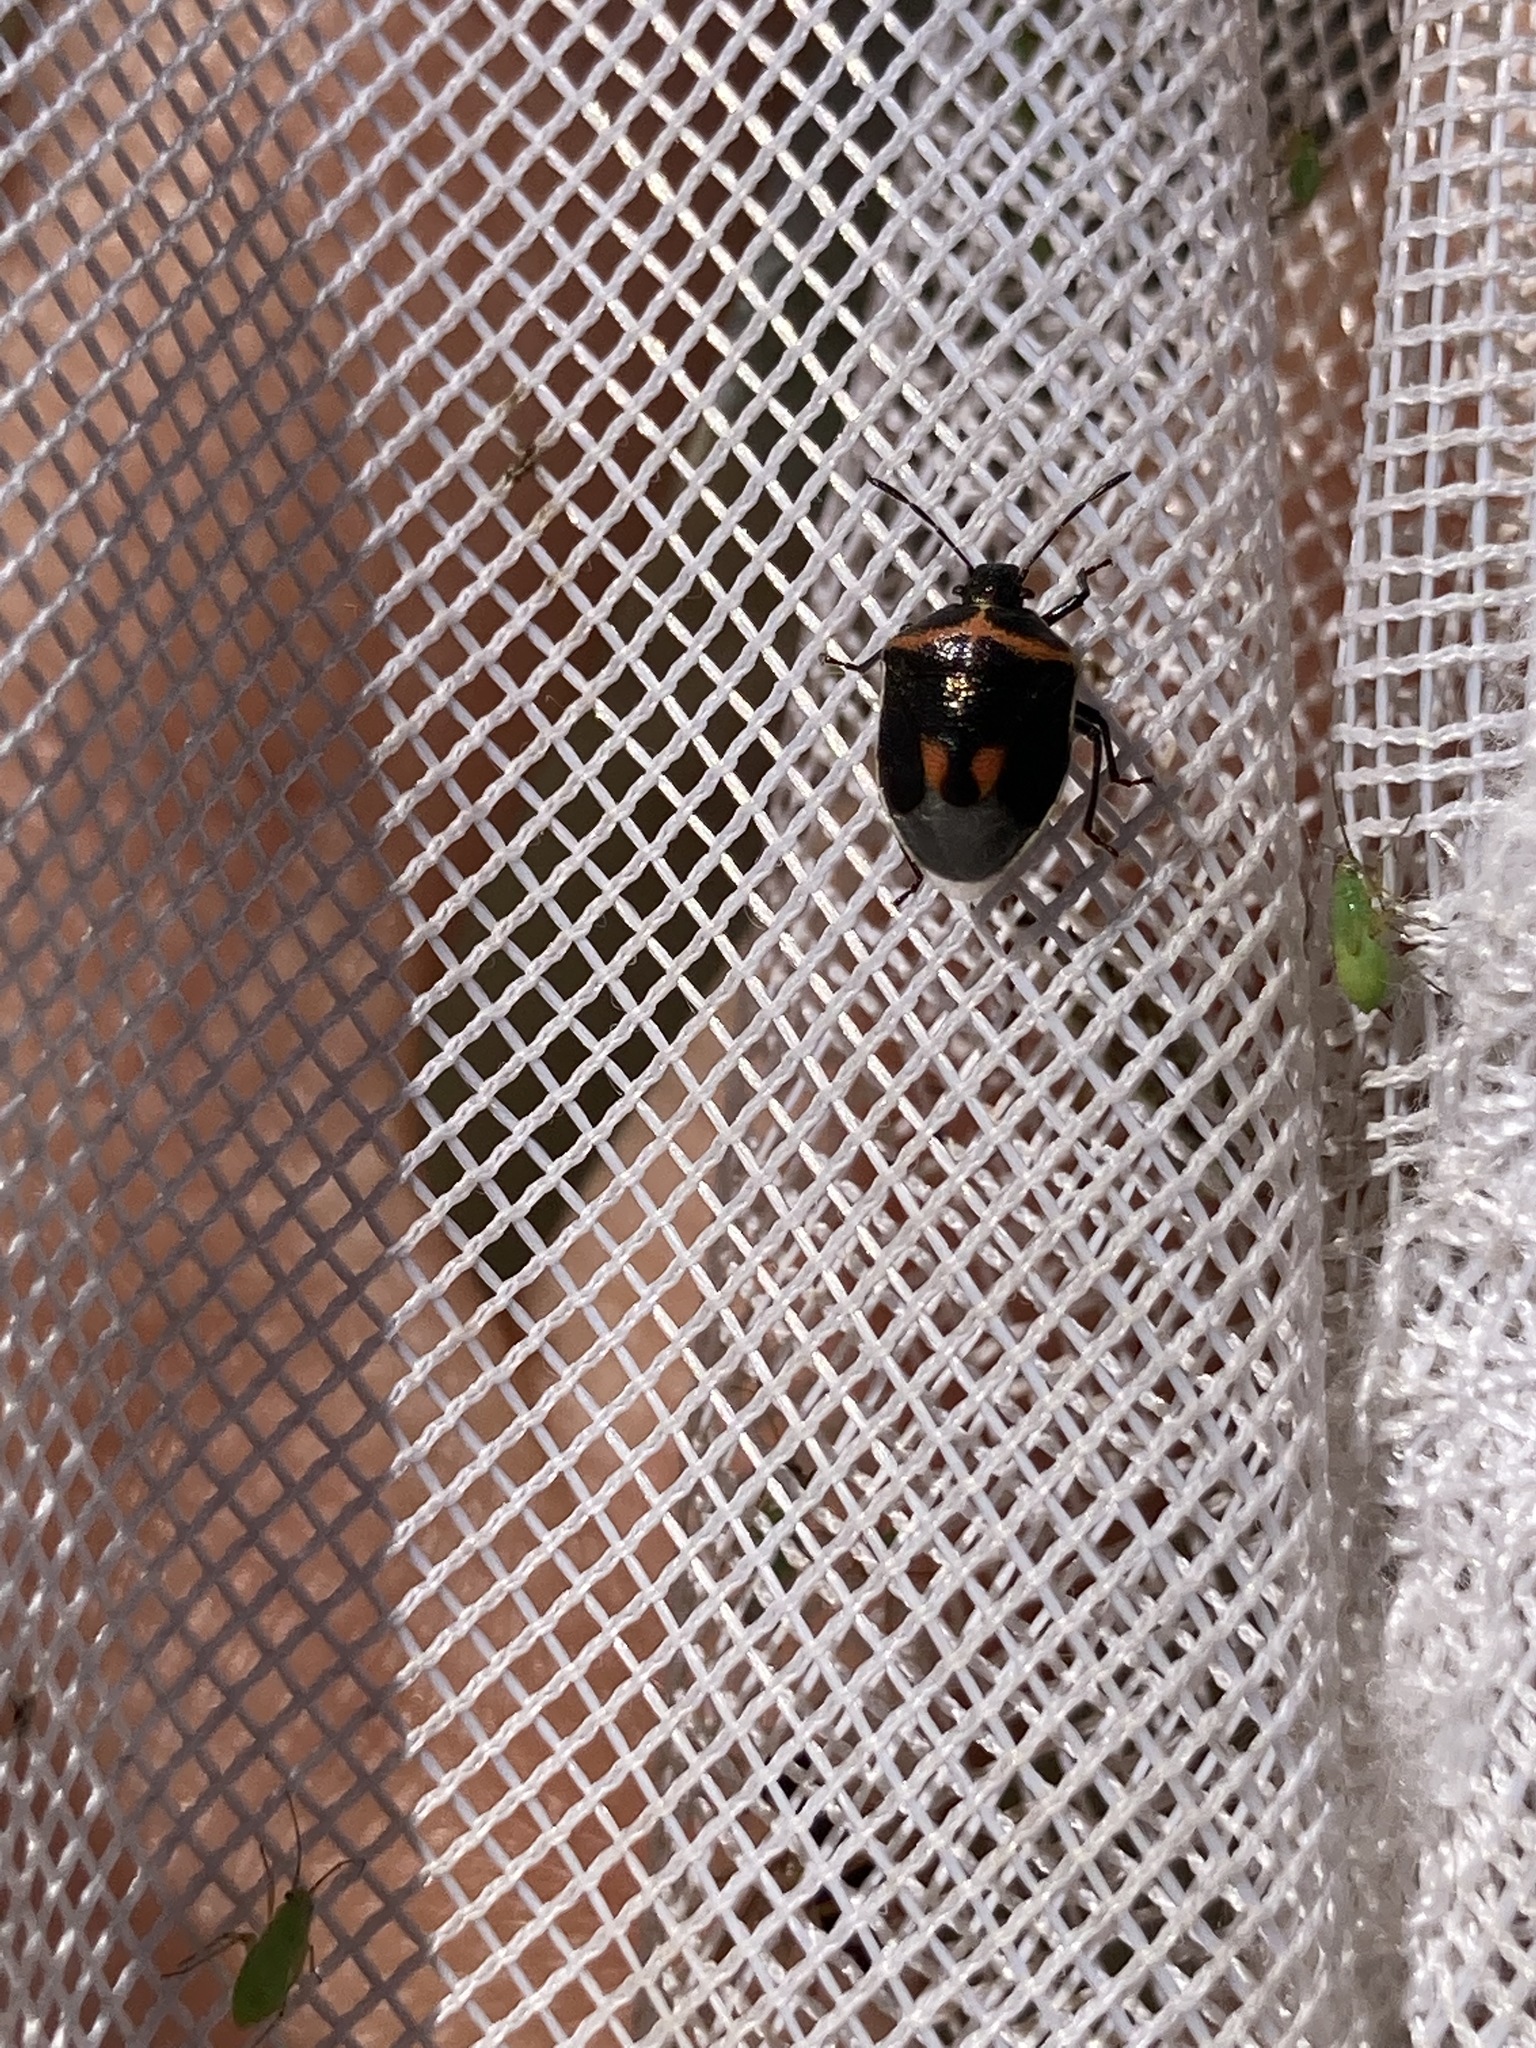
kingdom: Animalia
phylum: Arthropoda
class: Insecta
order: Hemiptera
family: Pentatomidae
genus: Cosmopepla
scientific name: Cosmopepla lintneriana
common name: Twice-stabbed stink bug
